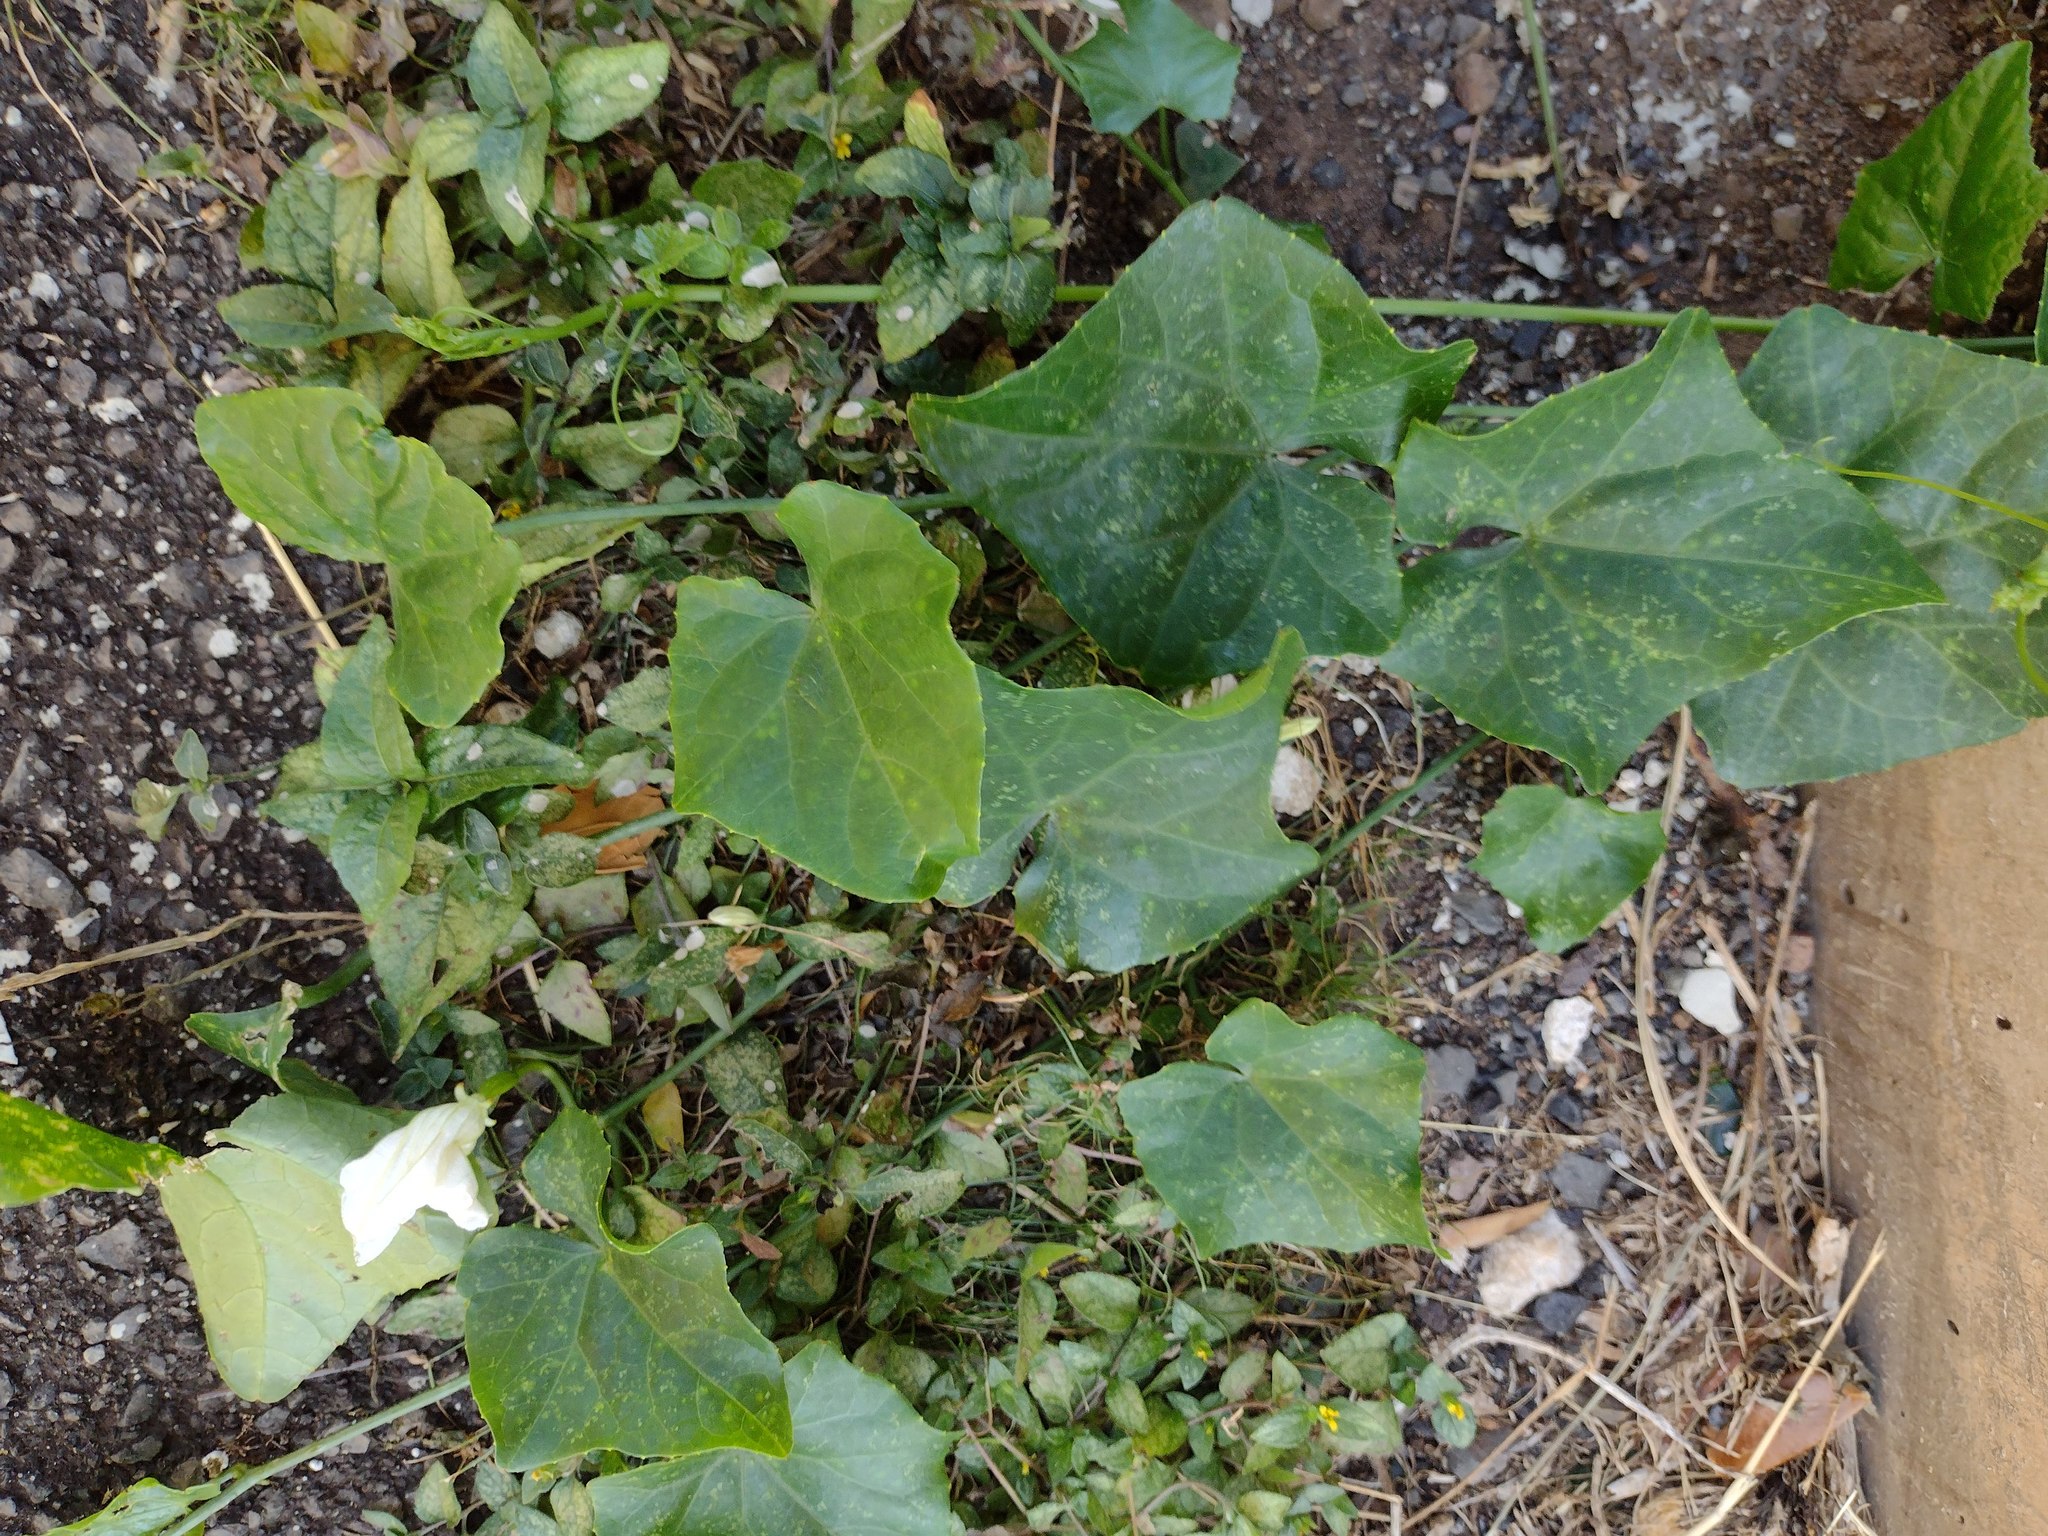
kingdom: Plantae
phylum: Tracheophyta
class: Magnoliopsida
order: Cucurbitales
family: Cucurbitaceae
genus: Coccinia
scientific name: Coccinia grandis
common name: Ivy gourd
